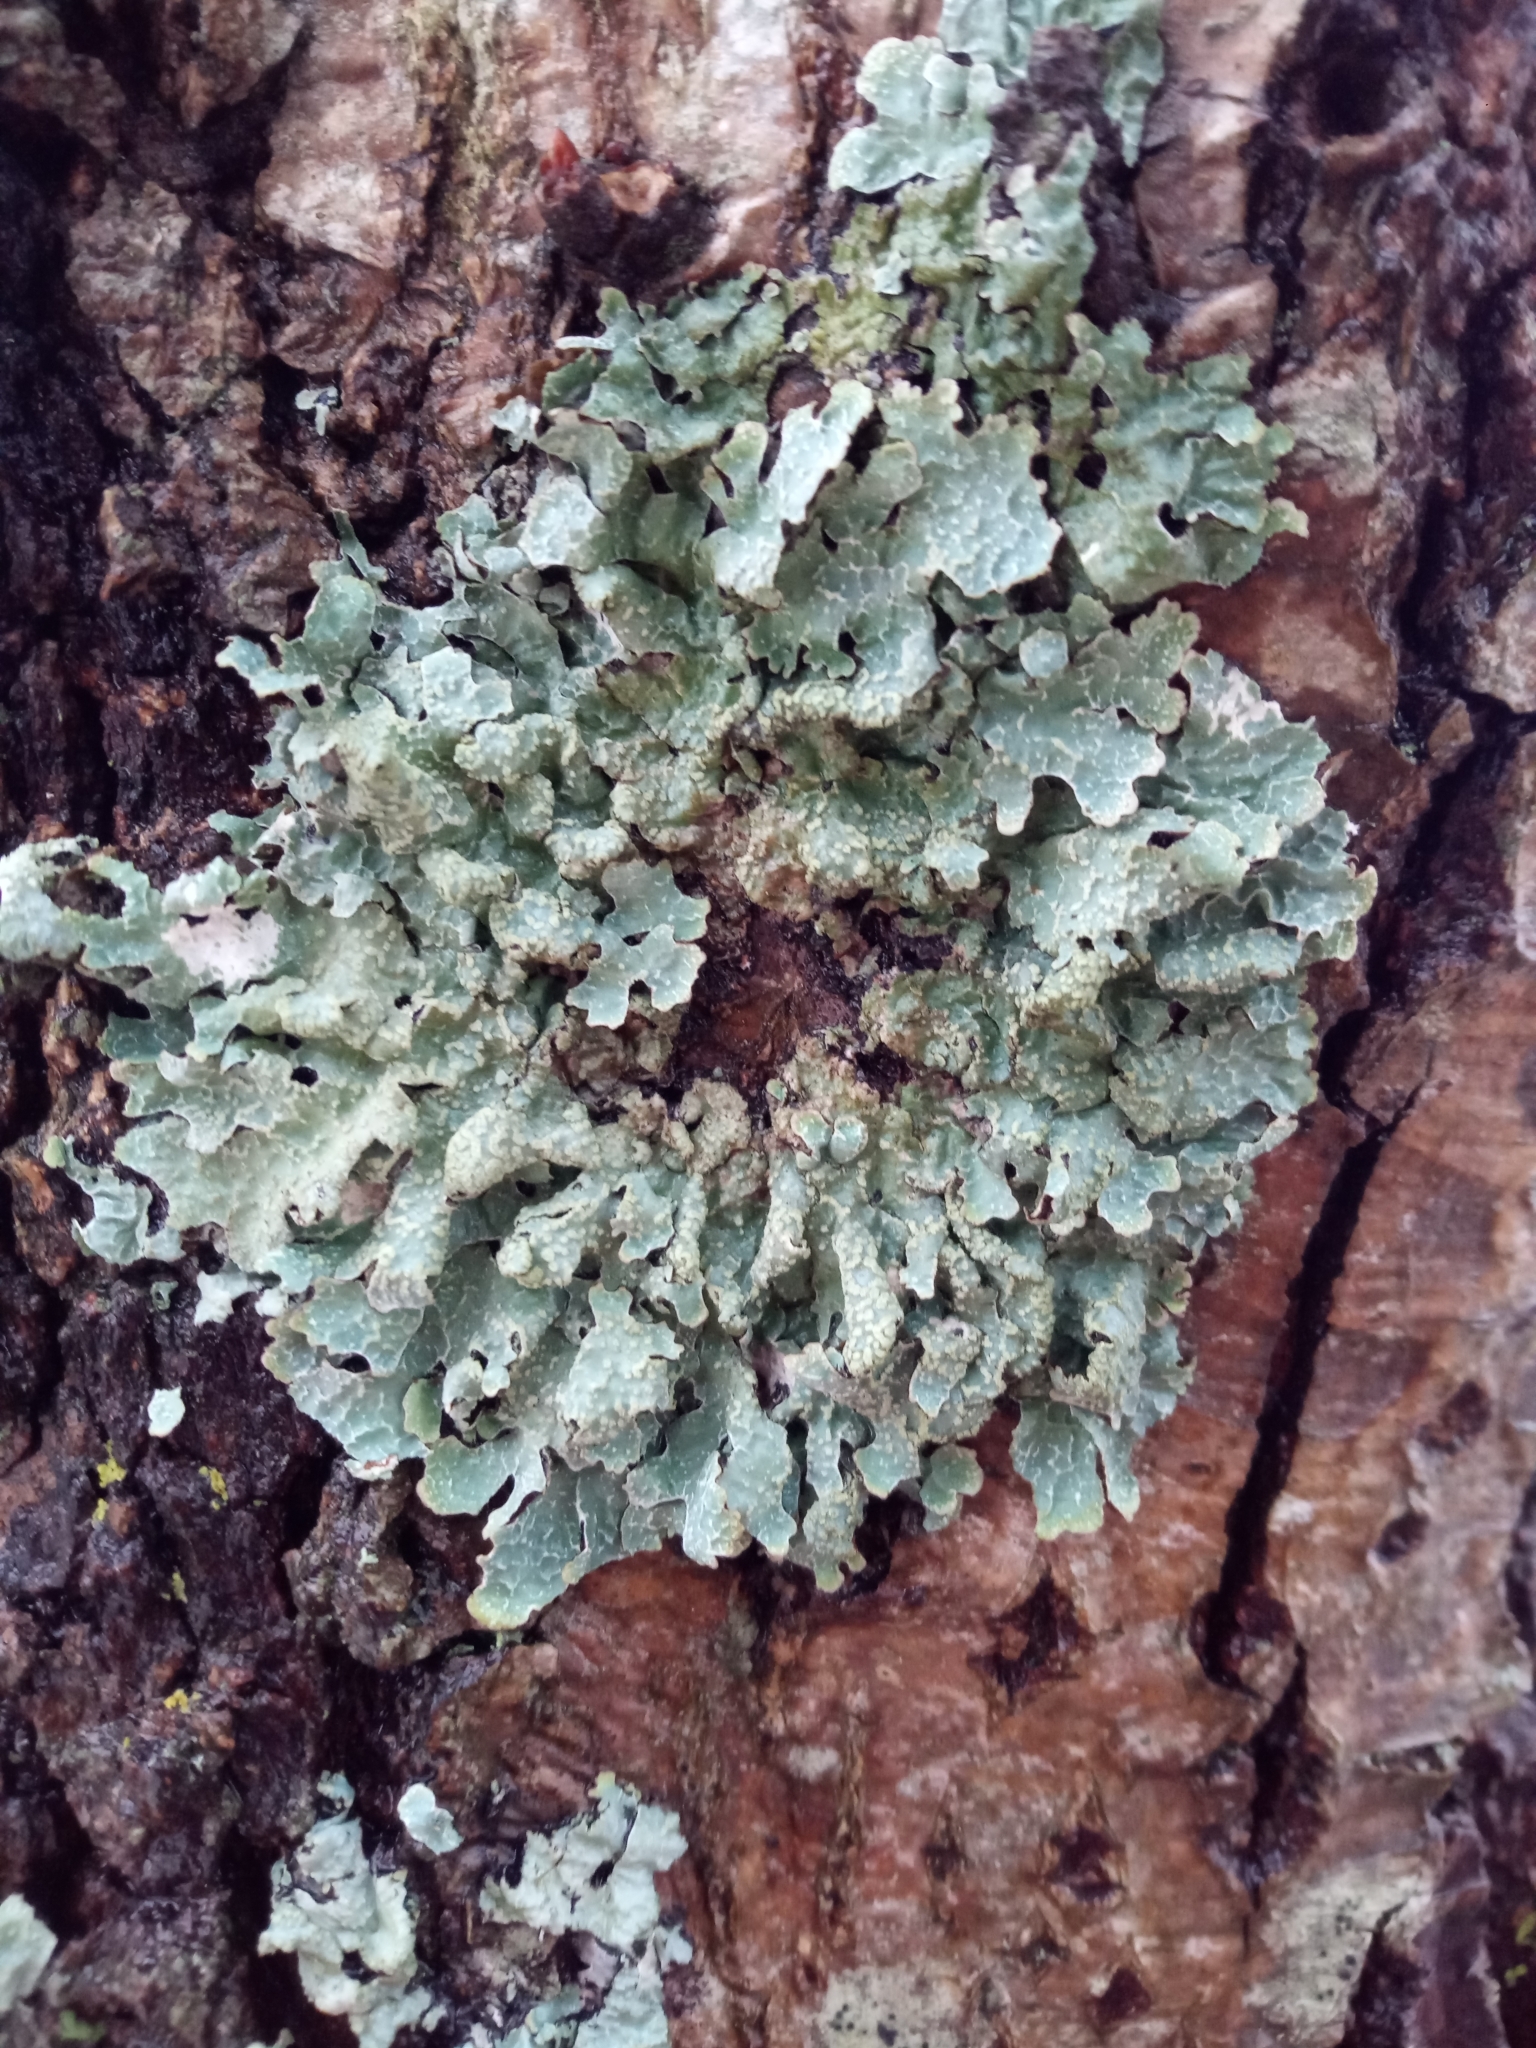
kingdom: Fungi
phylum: Ascomycota
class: Lecanoromycetes
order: Lecanorales
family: Parmeliaceae
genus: Parmelia
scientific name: Parmelia sulcata
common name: Netted shield lichen
